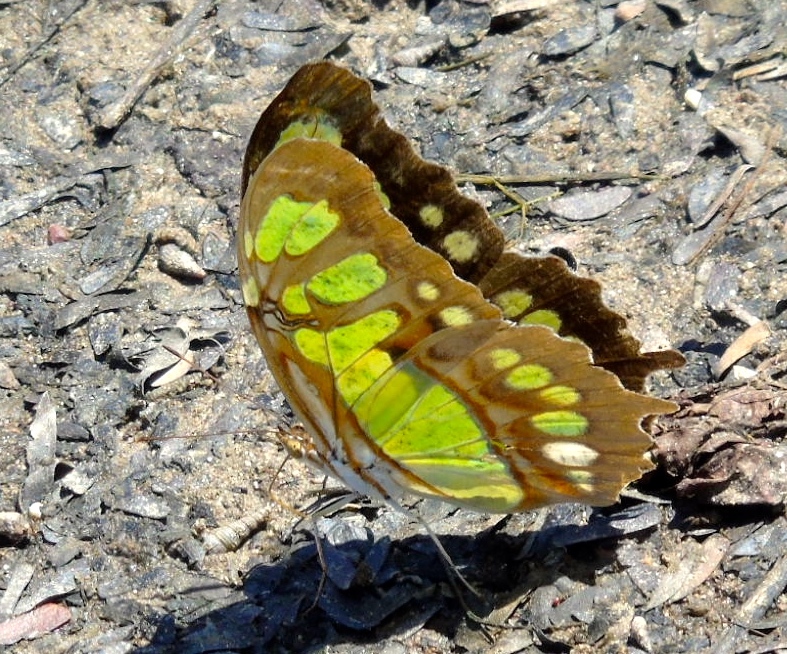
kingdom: Animalia
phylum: Arthropoda
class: Insecta
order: Lepidoptera
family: Nymphalidae
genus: Siproeta
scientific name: Siproeta stelenes
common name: Malachite
